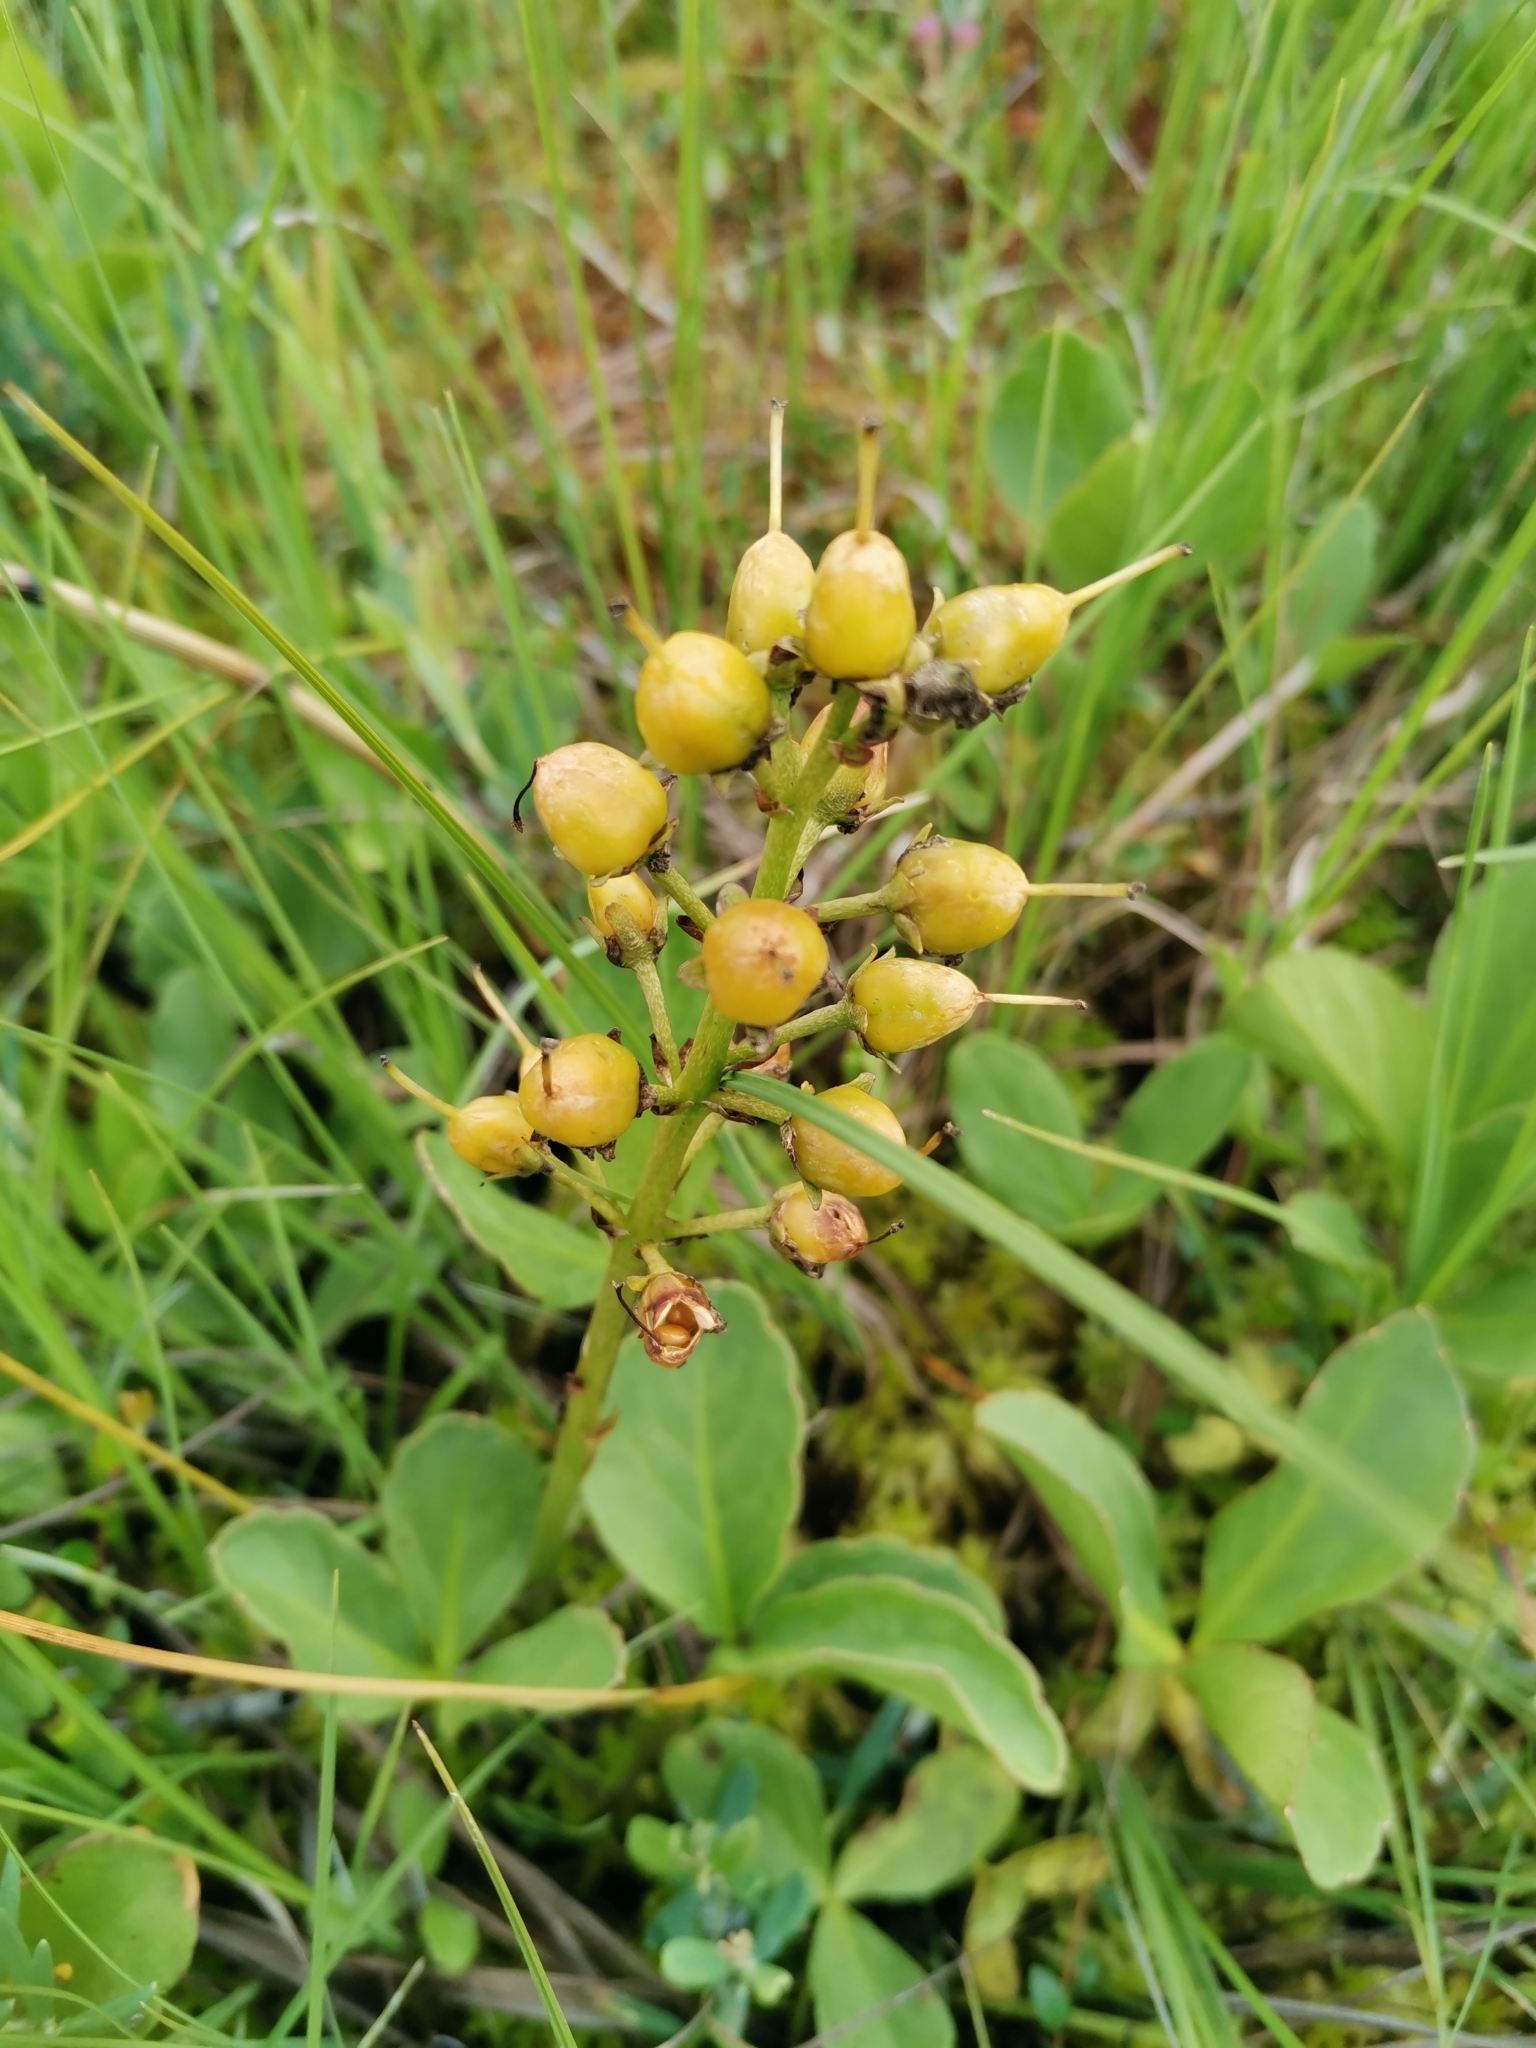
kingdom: Plantae
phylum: Tracheophyta
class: Magnoliopsida
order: Asterales
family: Menyanthaceae
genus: Menyanthes
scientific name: Menyanthes trifoliata
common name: Bogbean
